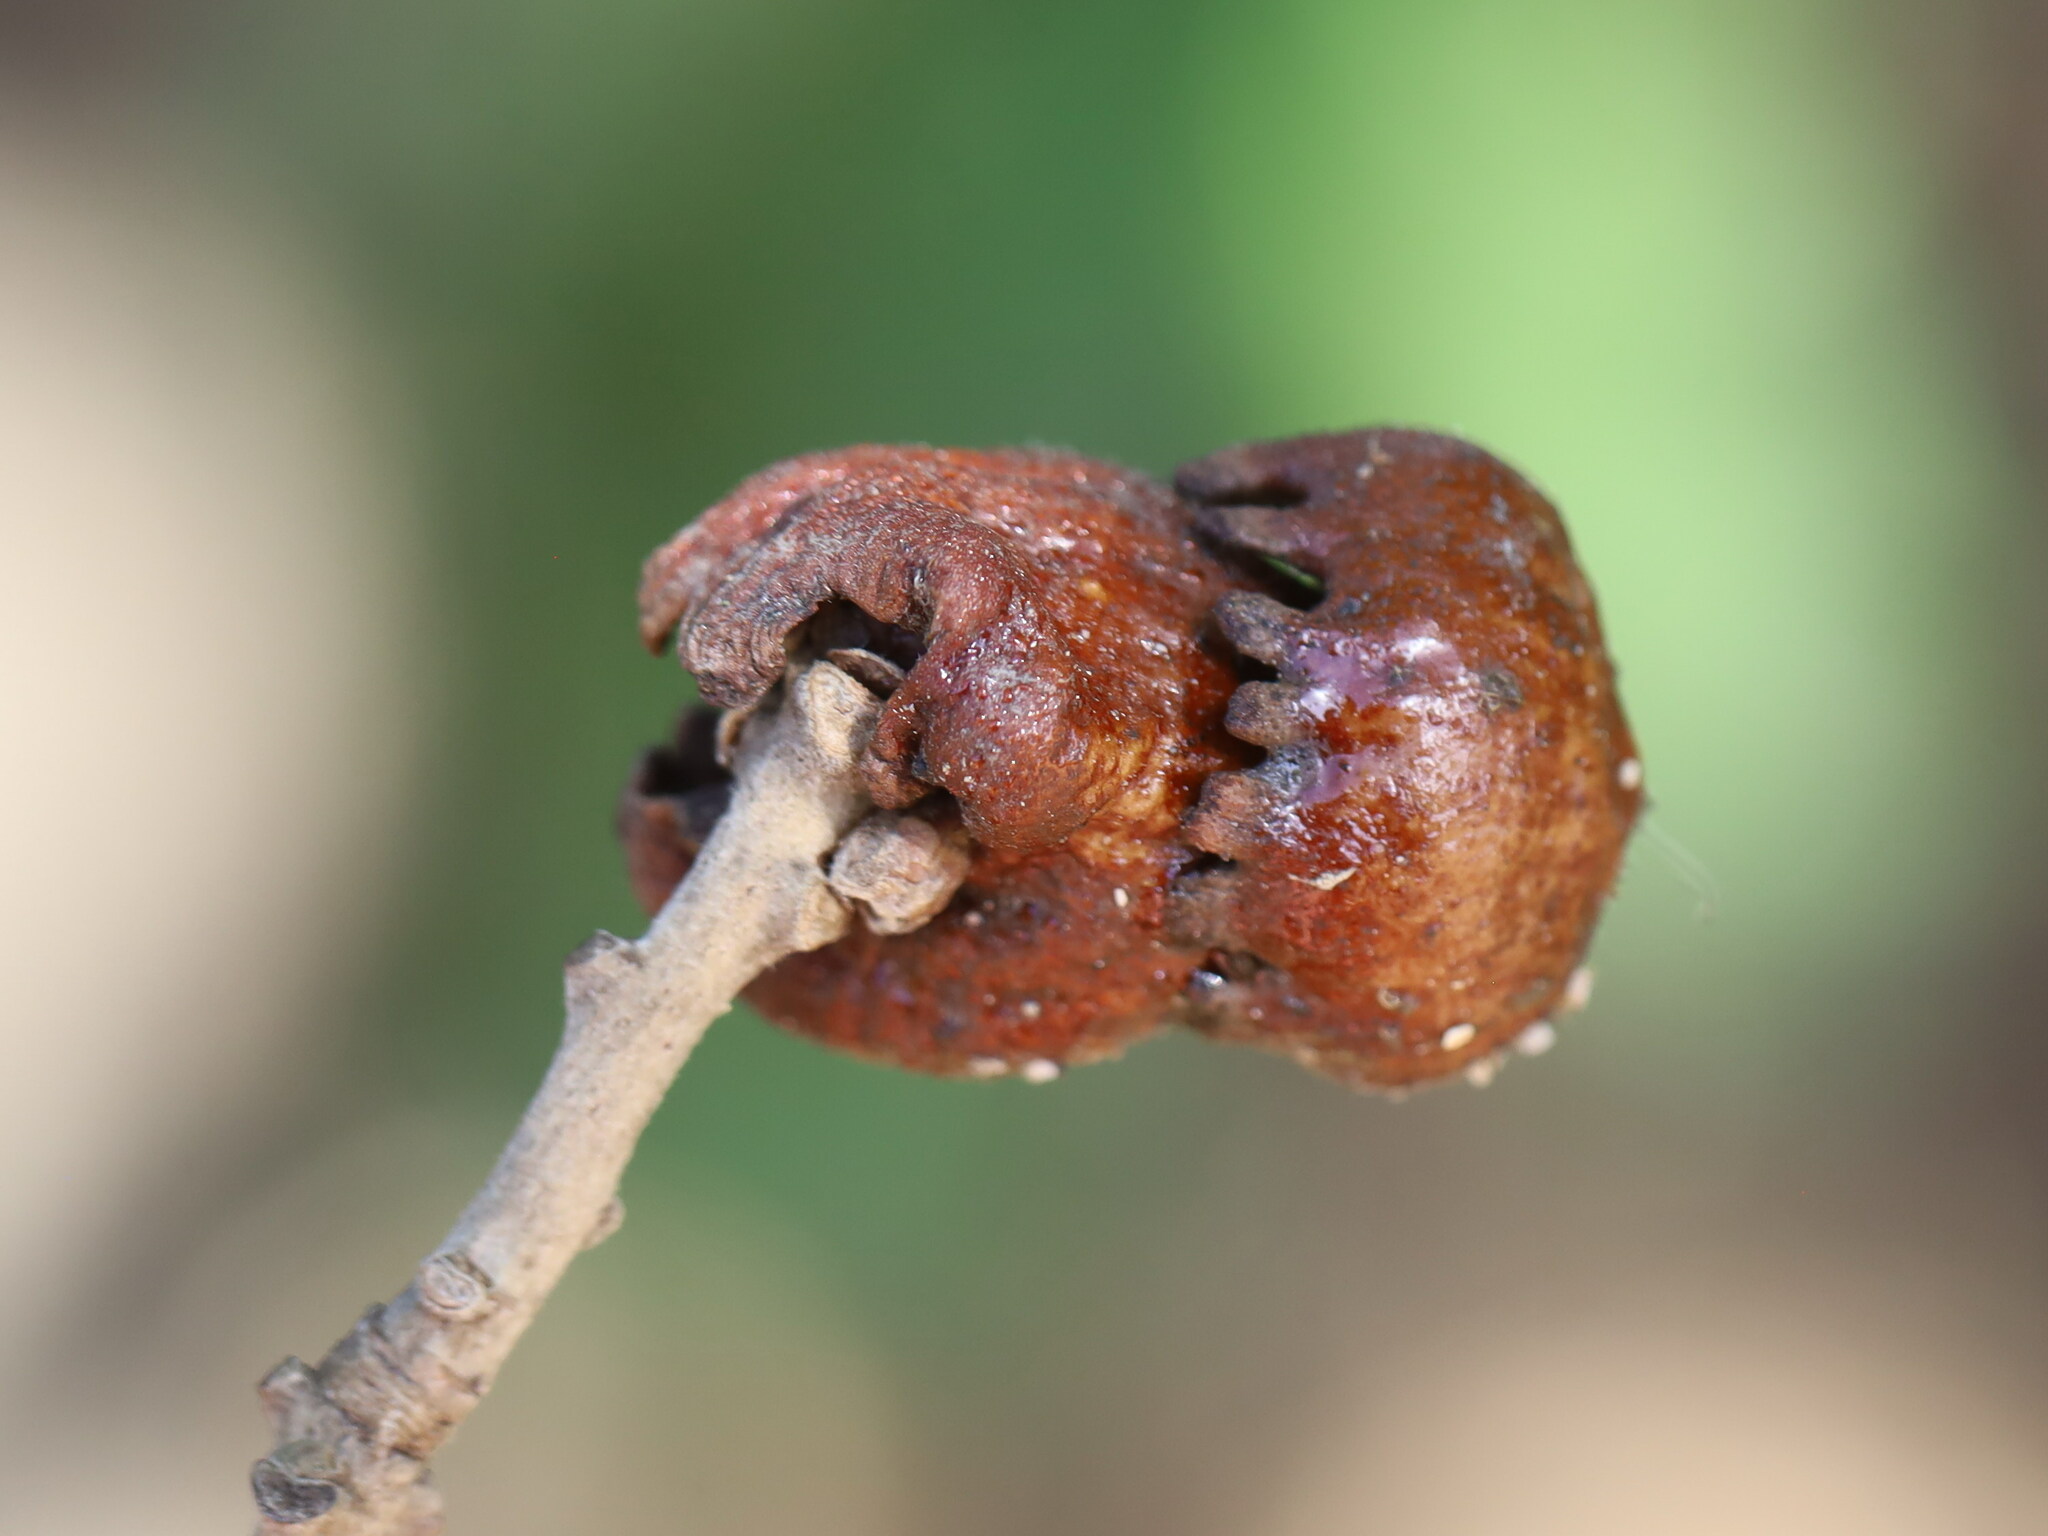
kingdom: Animalia
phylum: Arthropoda
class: Insecta
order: Hymenoptera
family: Cynipidae
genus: Andricus
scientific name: Andricus dentimitratus
